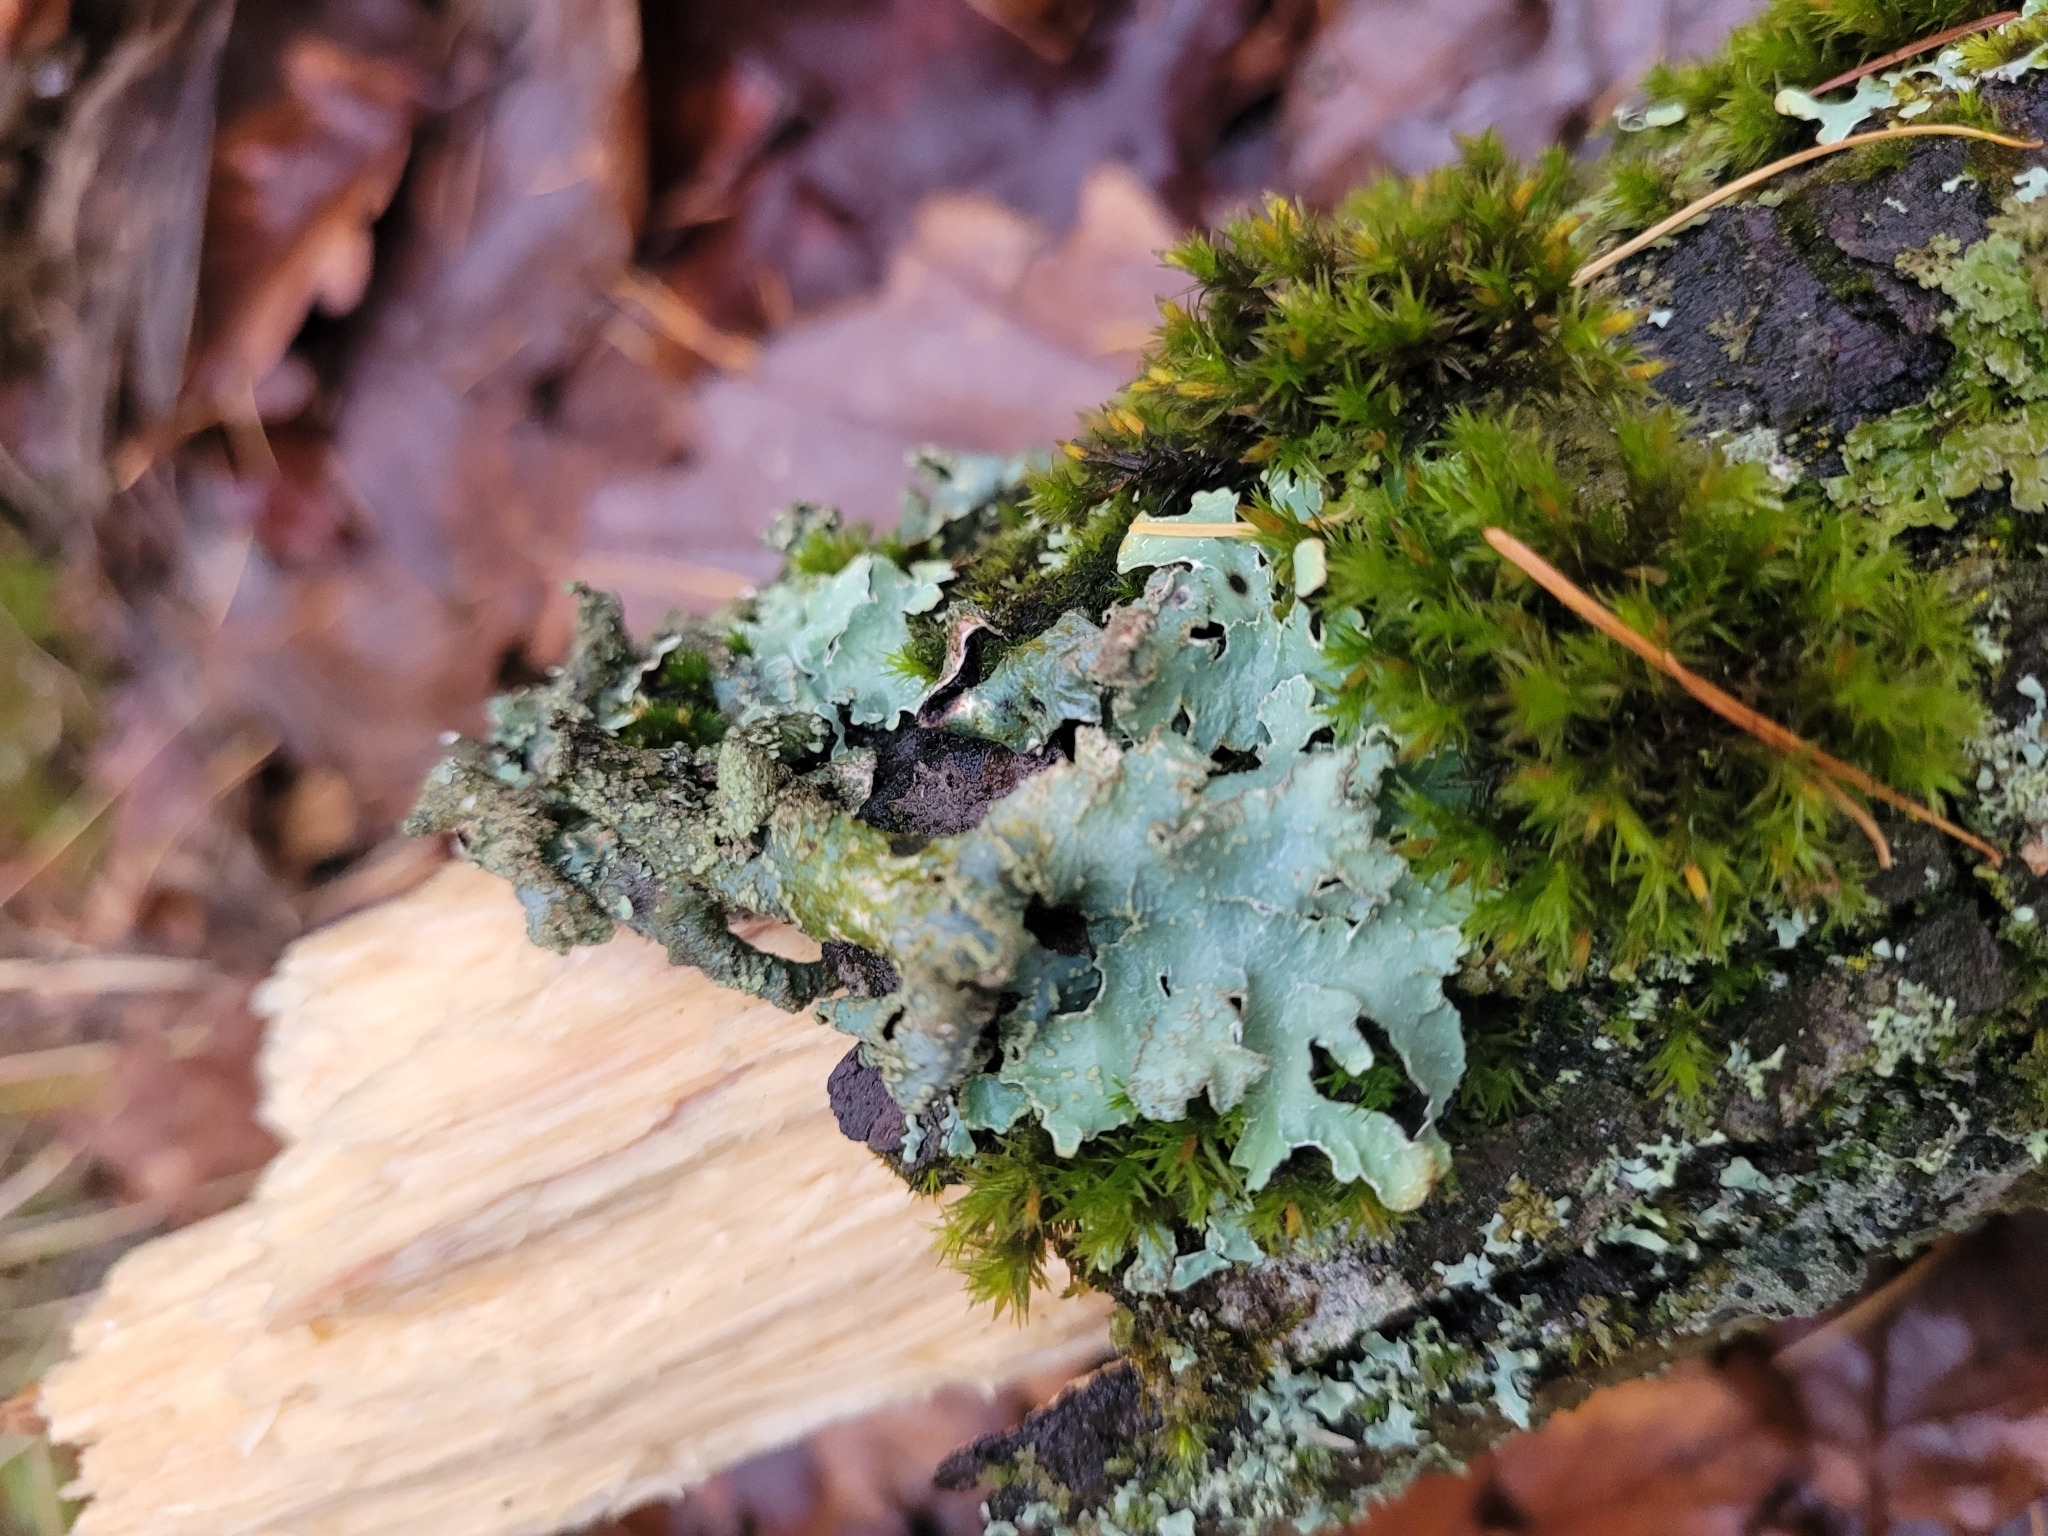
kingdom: Fungi
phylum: Ascomycota
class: Lecanoromycetes
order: Lecanorales
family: Parmeliaceae
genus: Parmelia
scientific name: Parmelia sulcata
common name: Netted shield lichen
